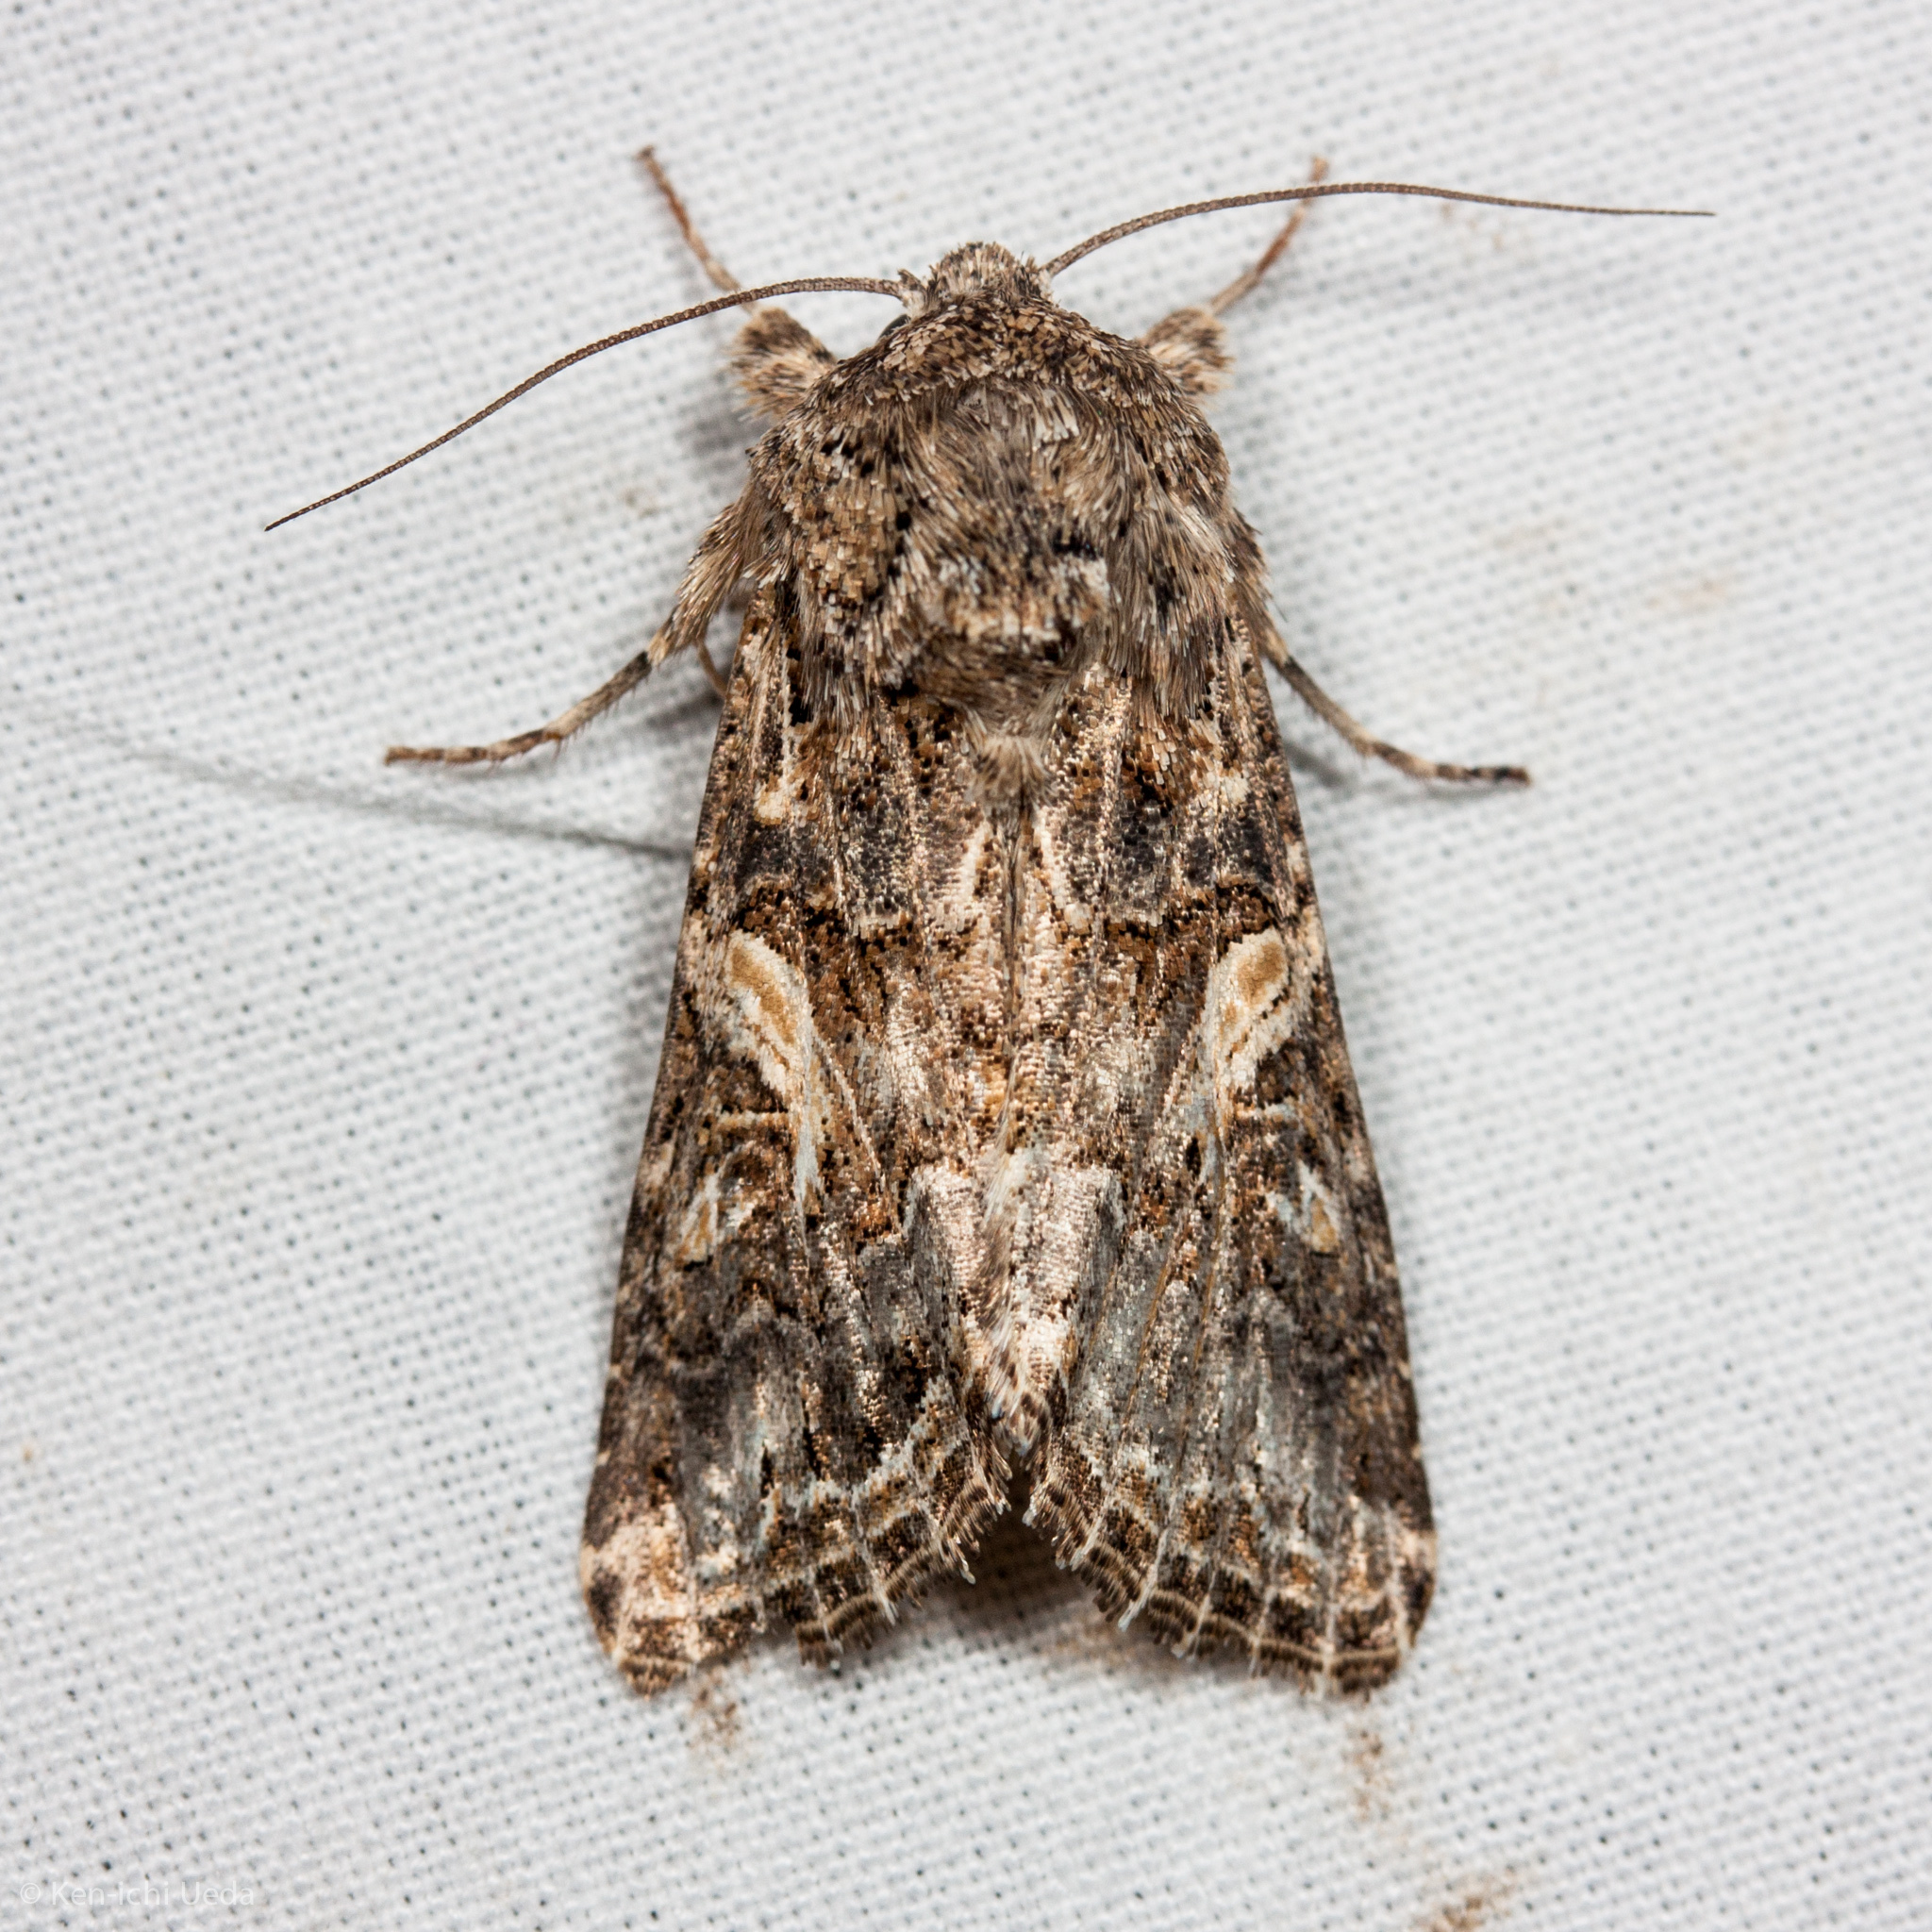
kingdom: Animalia
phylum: Arthropoda
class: Insecta
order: Lepidoptera
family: Noctuidae
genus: Spodoptera
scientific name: Spodoptera praefica
